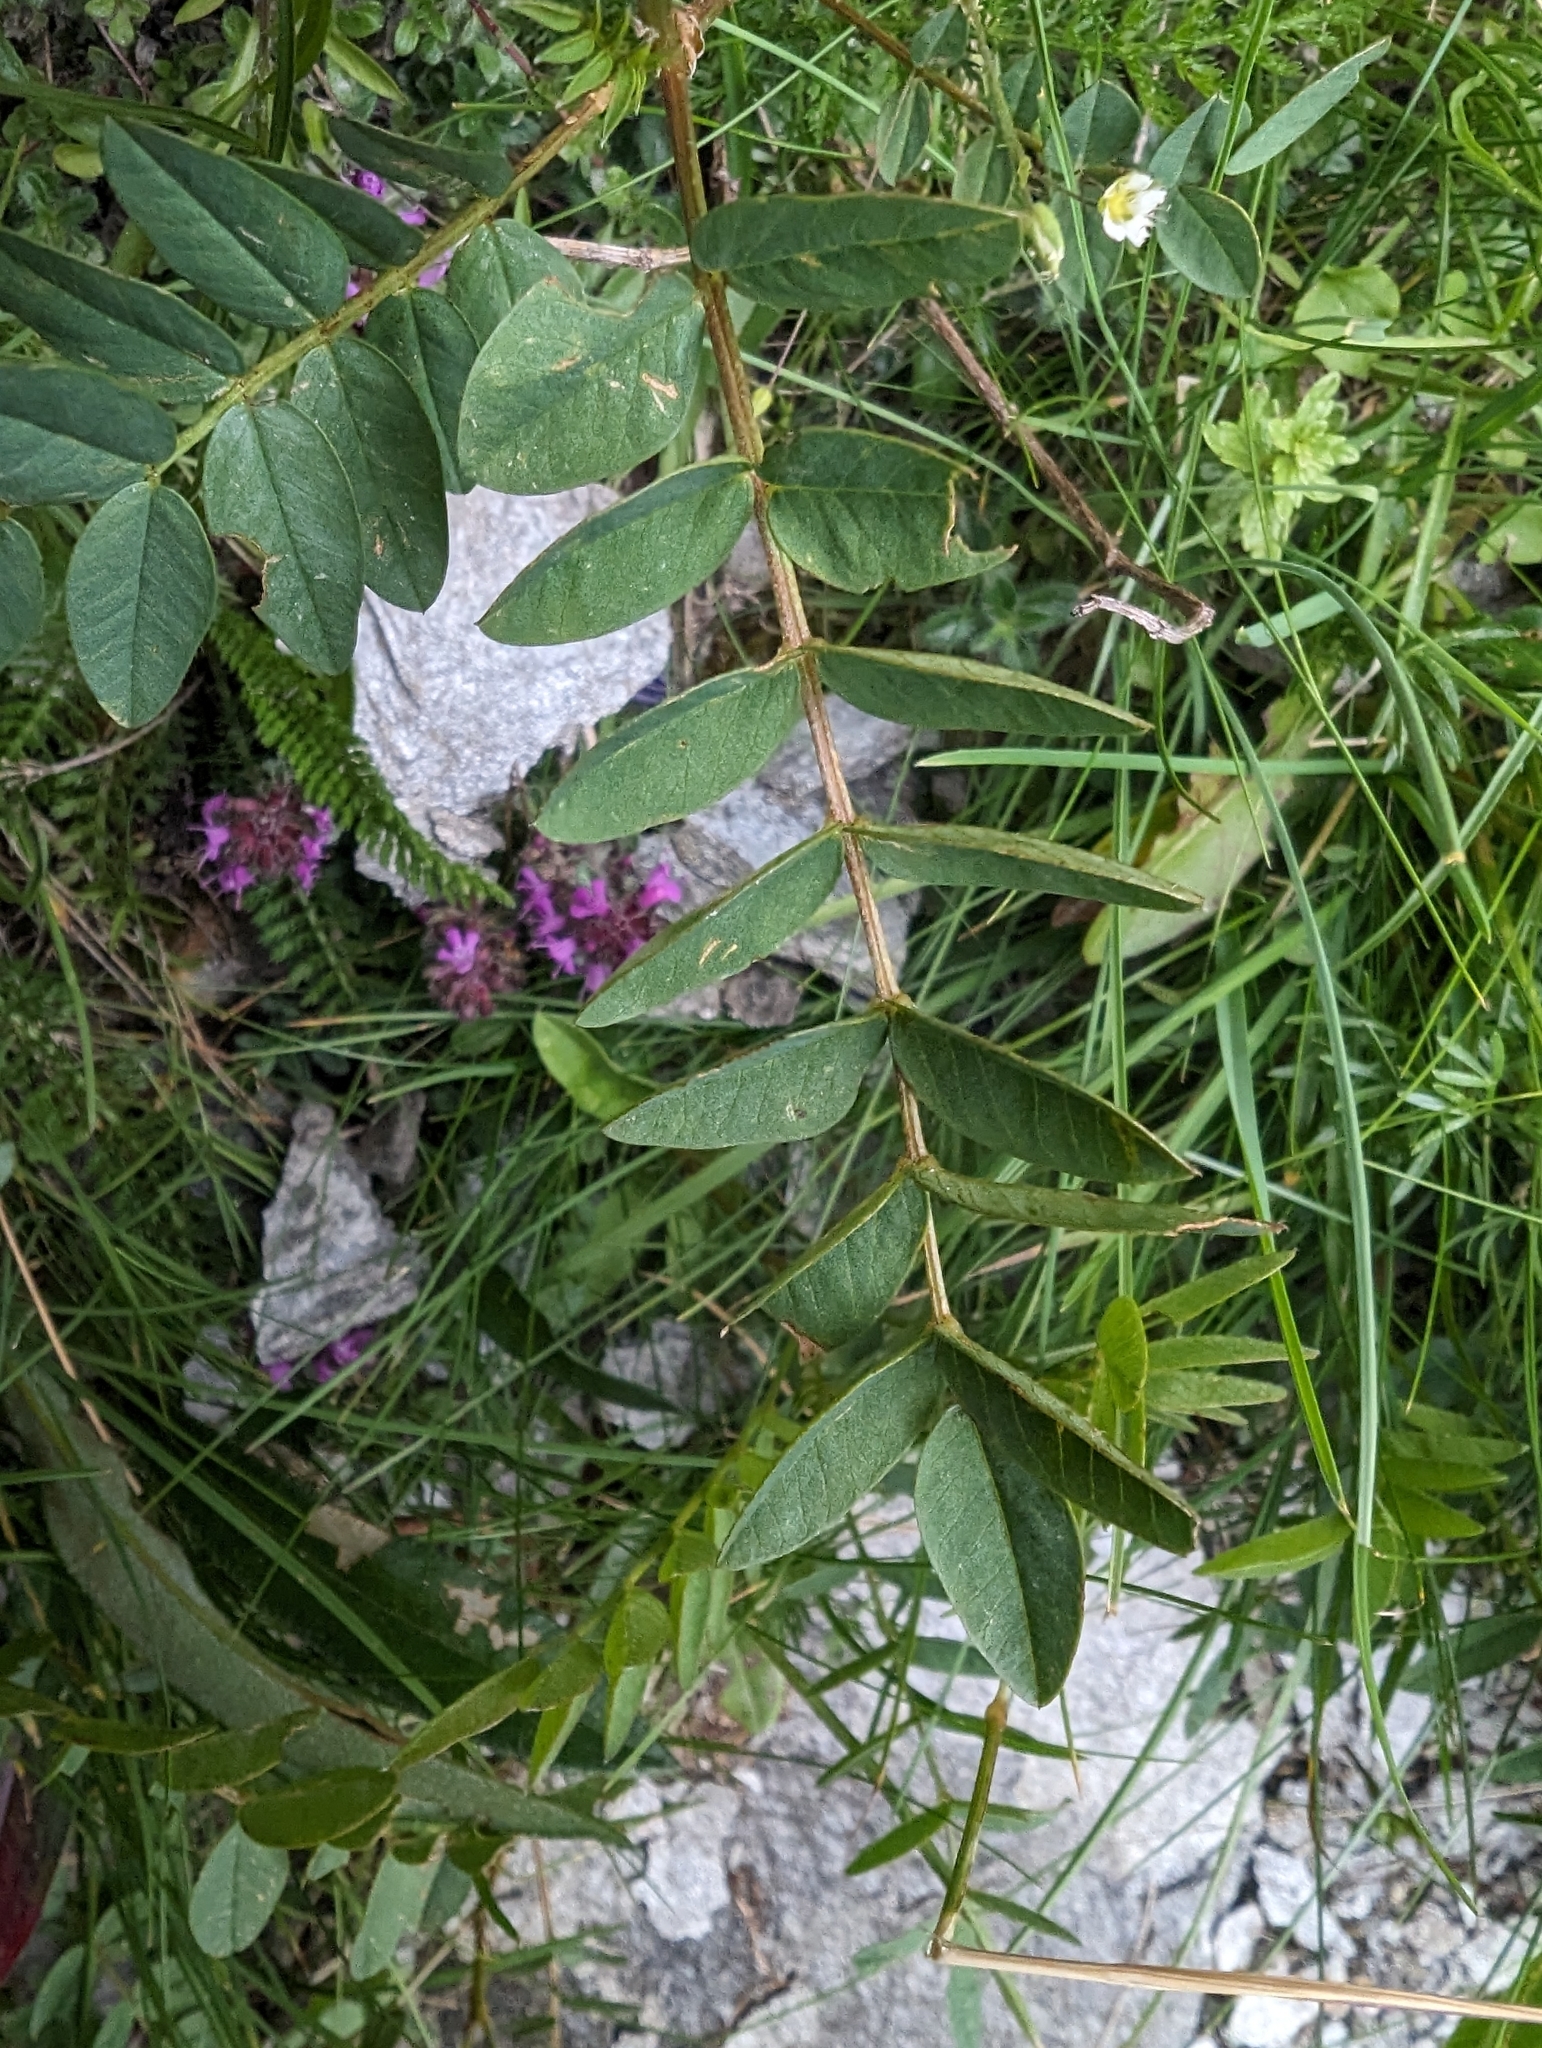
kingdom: Plantae
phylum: Tracheophyta
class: Magnoliopsida
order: Fabales
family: Fabaceae
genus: Hedysarum
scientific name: Hedysarum hedysaroides
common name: Alpine french-honeysuckle
